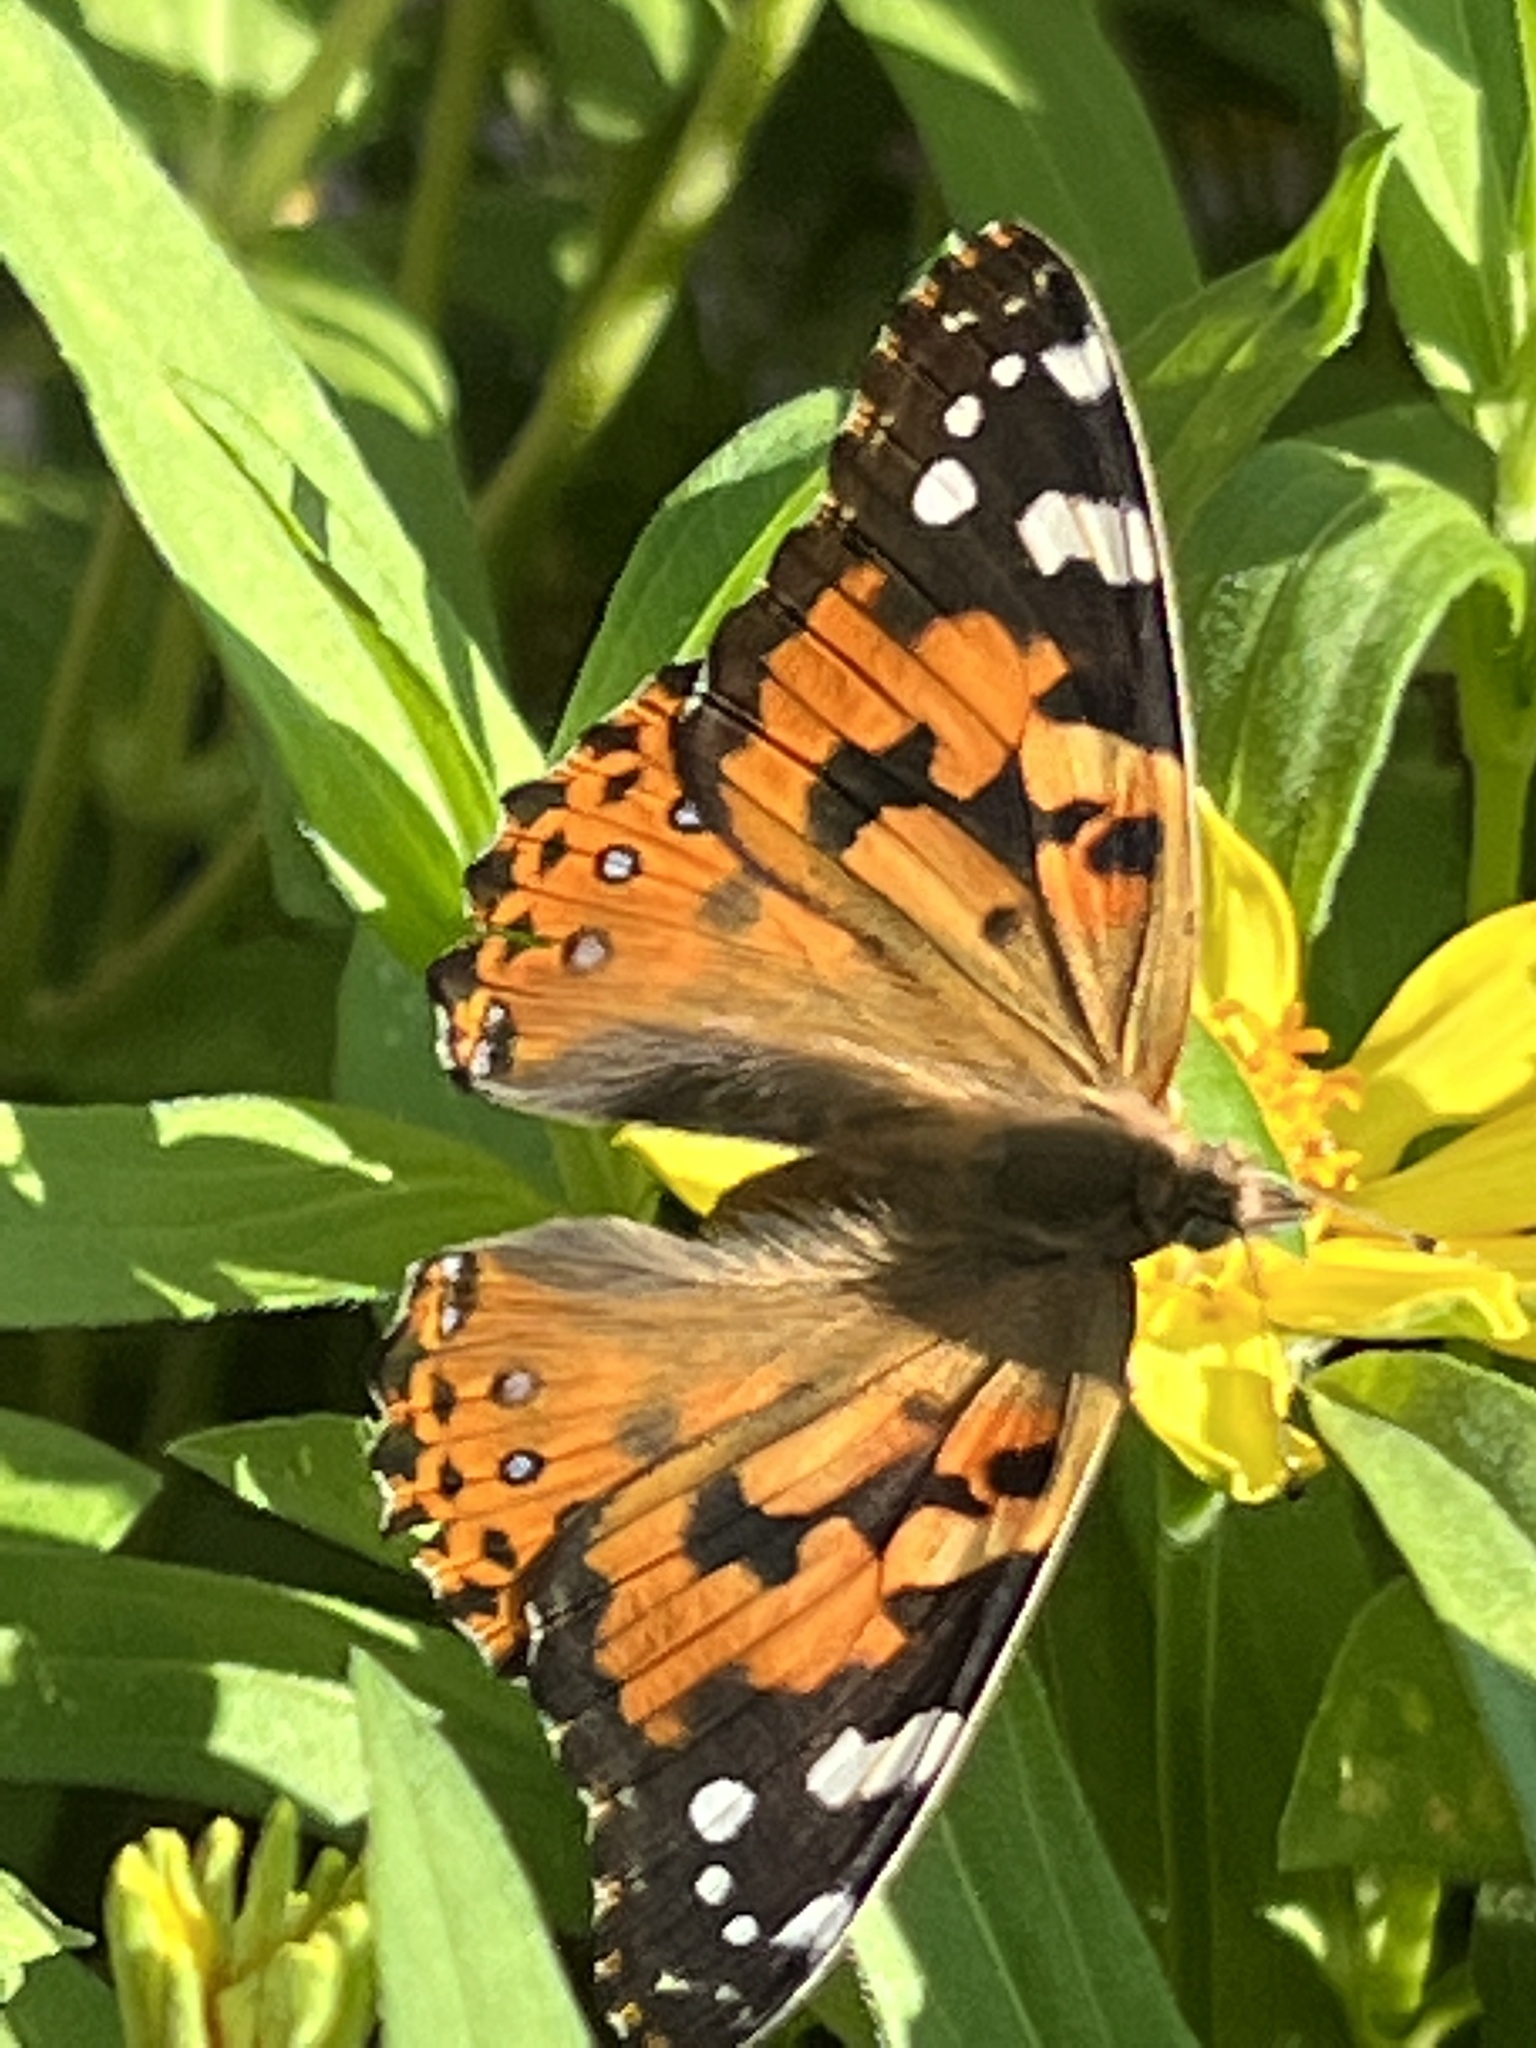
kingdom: Animalia
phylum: Arthropoda
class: Insecta
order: Lepidoptera
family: Nymphalidae
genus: Vanessa
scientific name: Vanessa cardui
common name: Painted lady
